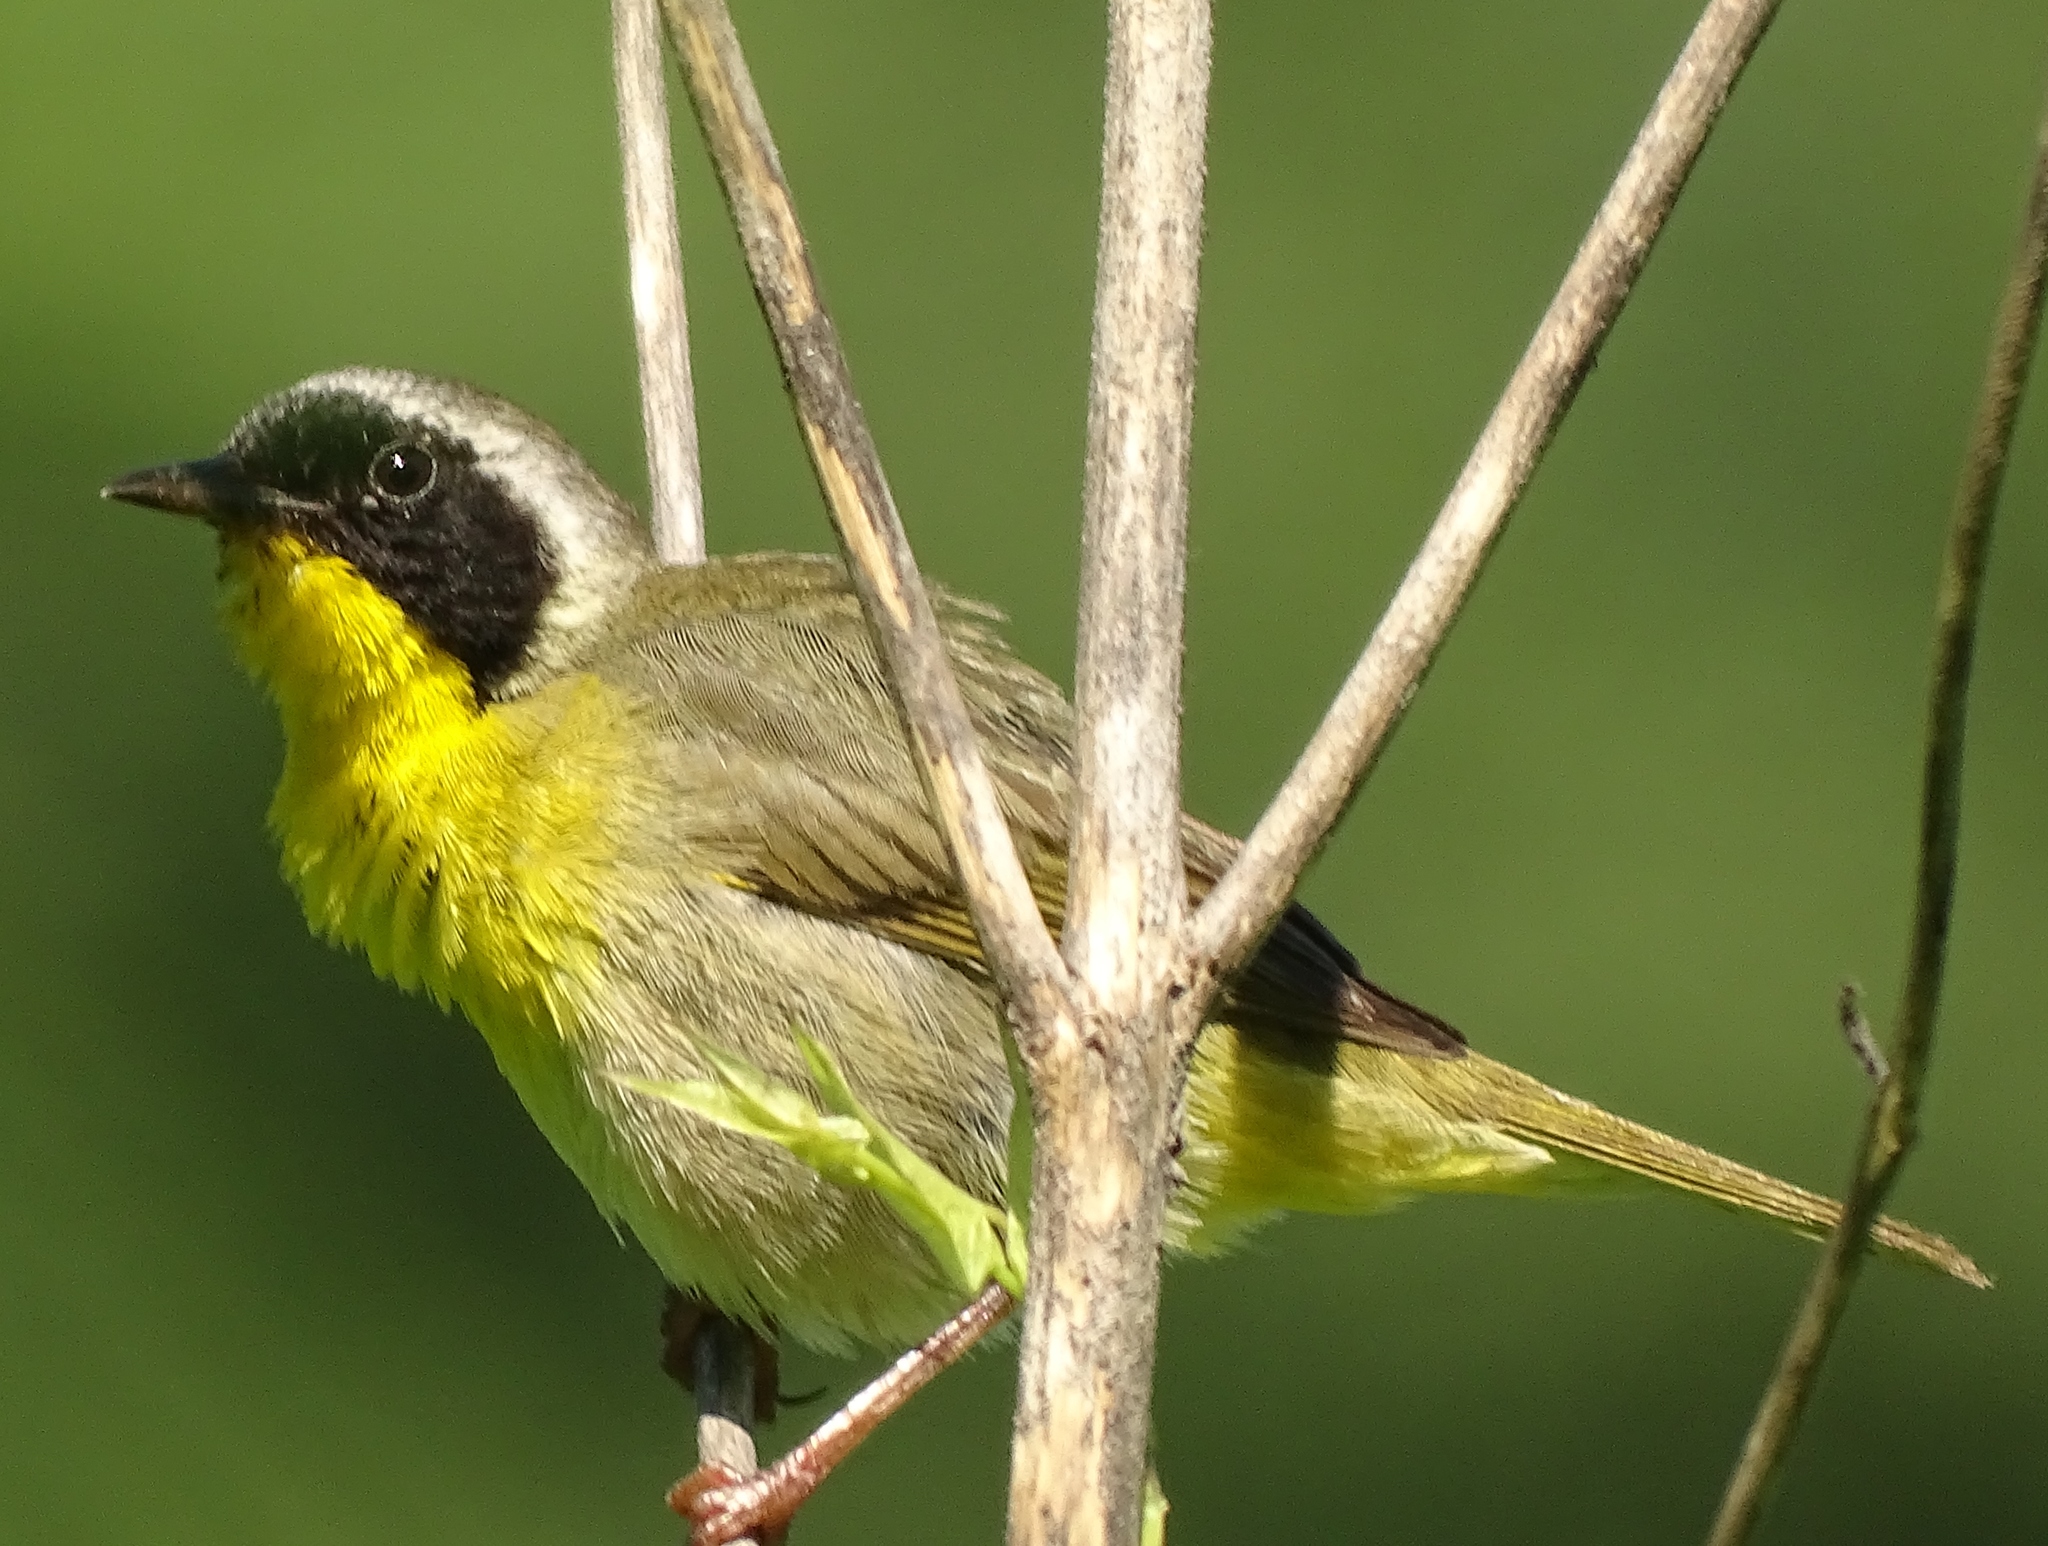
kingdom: Animalia
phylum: Chordata
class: Aves
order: Passeriformes
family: Parulidae
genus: Geothlypis
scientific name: Geothlypis trichas
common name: Common yellowthroat
